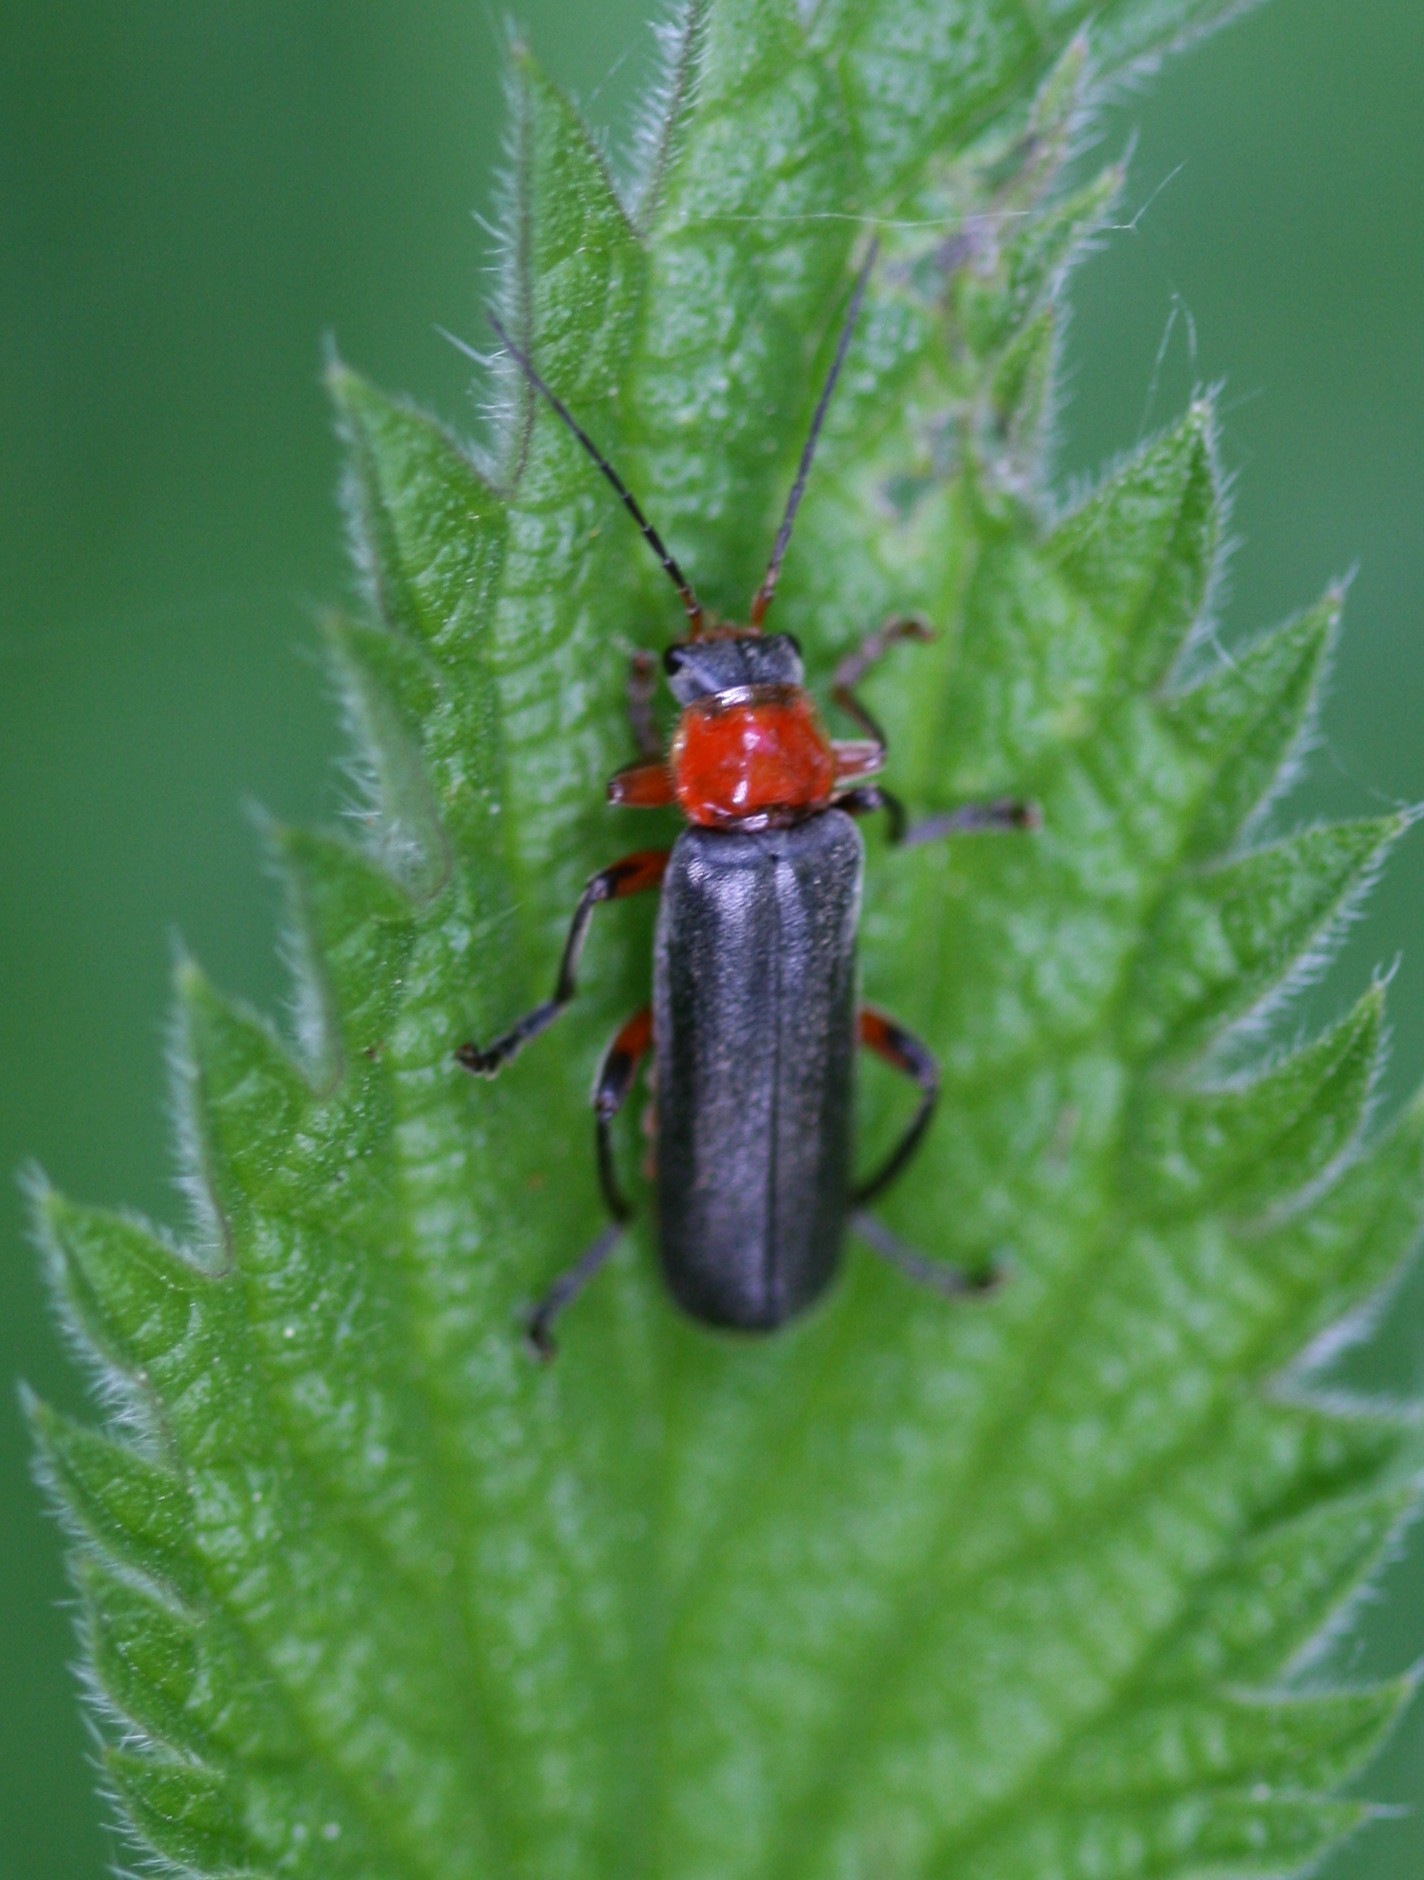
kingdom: Animalia
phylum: Arthropoda
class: Insecta
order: Coleoptera
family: Cantharidae
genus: Cantharis
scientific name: Cantharis pellucida
